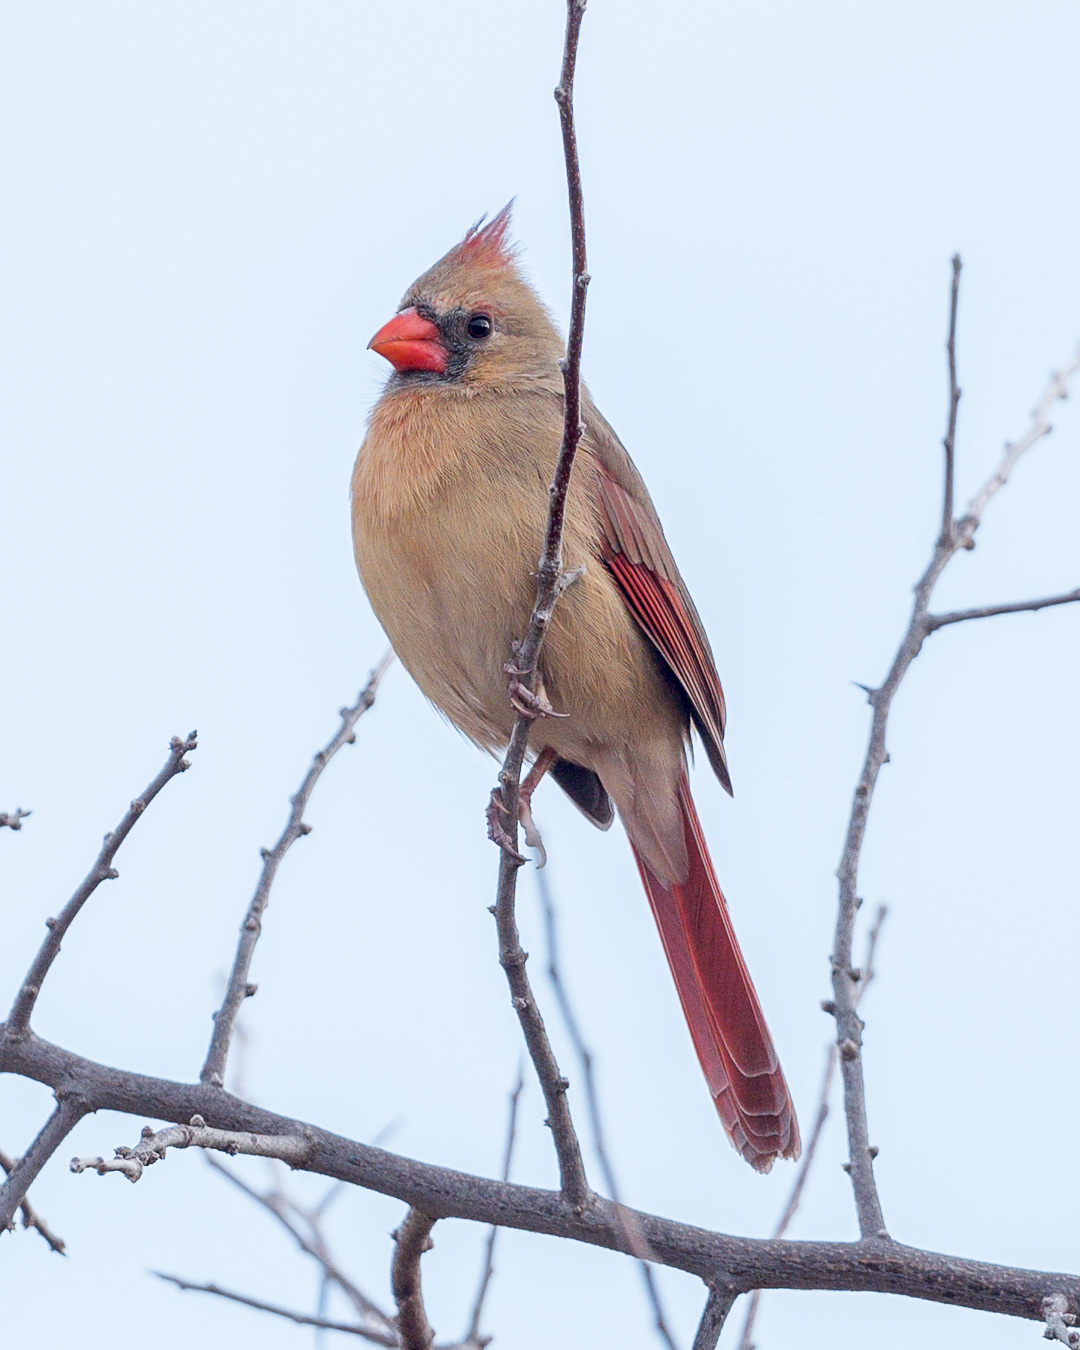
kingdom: Animalia
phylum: Chordata
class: Aves
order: Passeriformes
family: Cardinalidae
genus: Cardinalis
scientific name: Cardinalis cardinalis
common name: Northern cardinal
